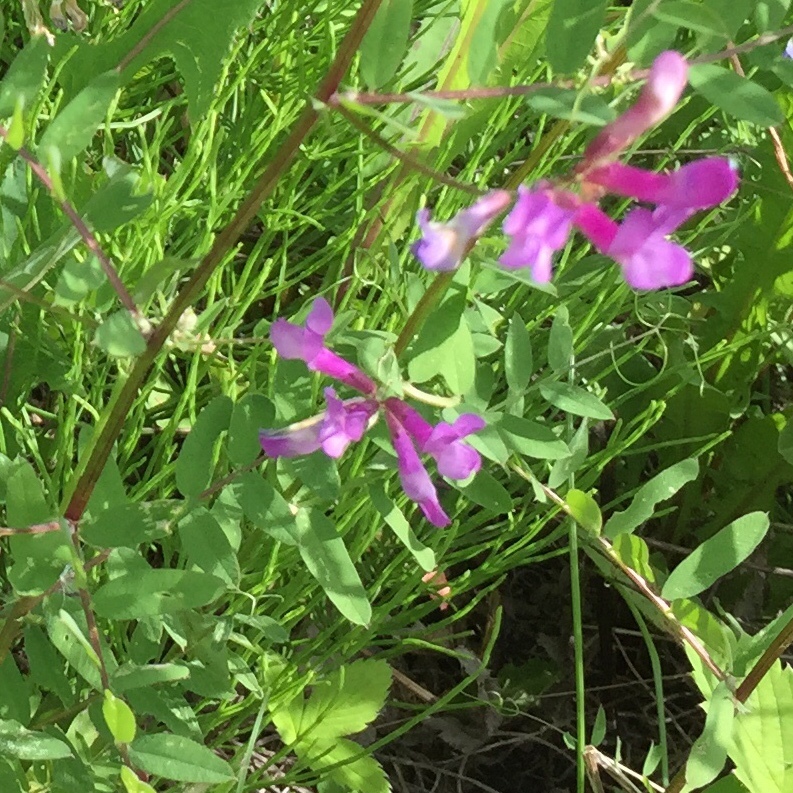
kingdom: Plantae
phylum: Tracheophyta
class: Magnoliopsida
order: Fabales
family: Fabaceae
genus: Vicia
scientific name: Vicia americana
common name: American vetch
